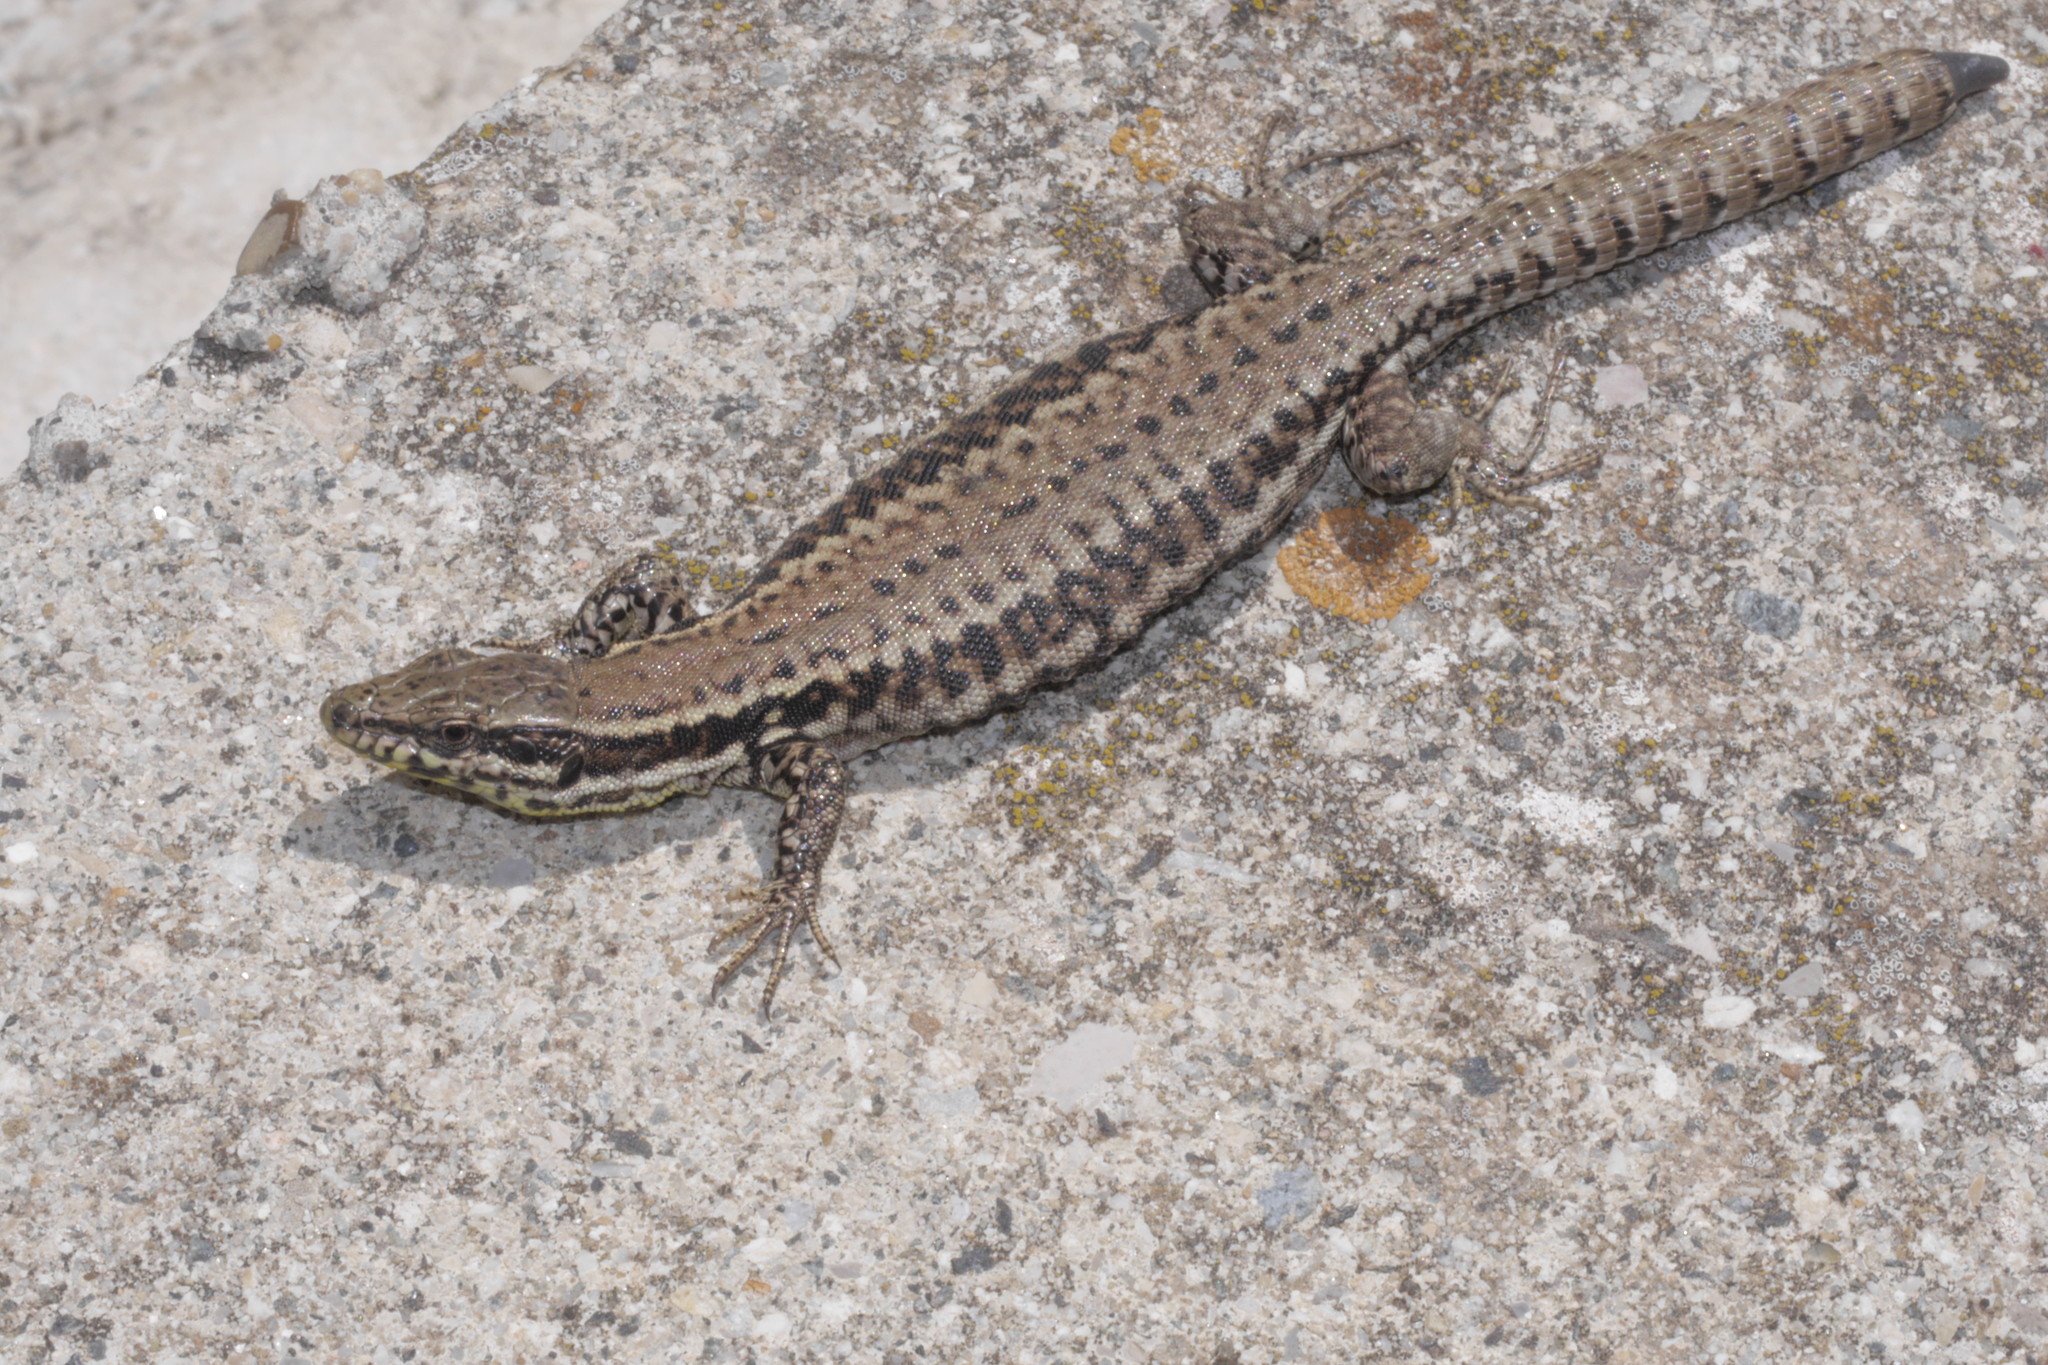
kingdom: Animalia
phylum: Chordata
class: Squamata
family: Lacertidae
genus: Podarcis
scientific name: Podarcis muralis
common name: Common wall lizard
